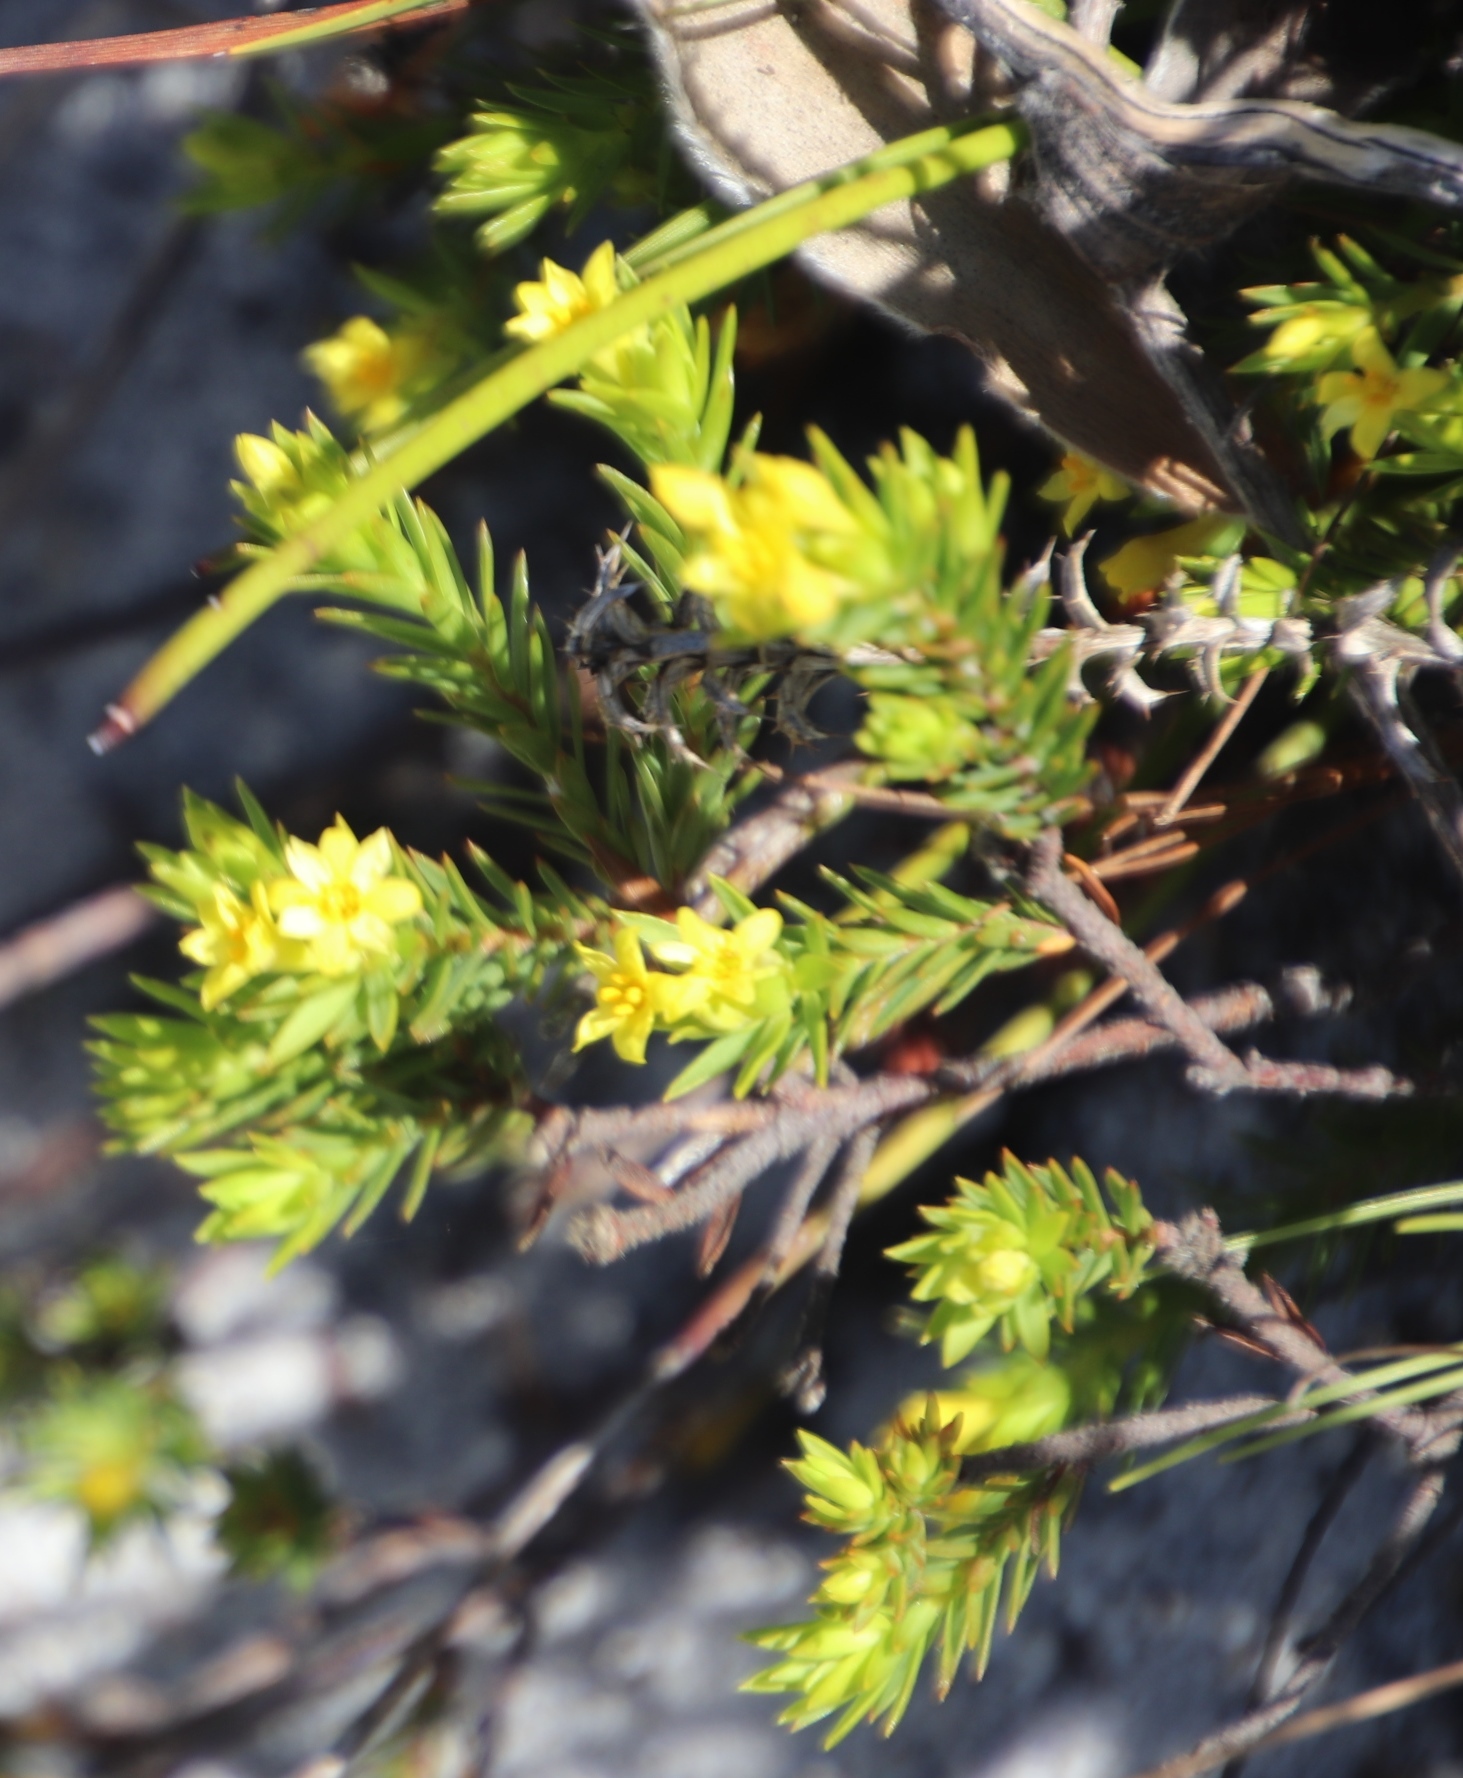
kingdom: Plantae
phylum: Tracheophyta
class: Magnoliopsida
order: Malvales
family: Thymelaeaceae
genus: Gnidia
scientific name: Gnidia juniperifolia
